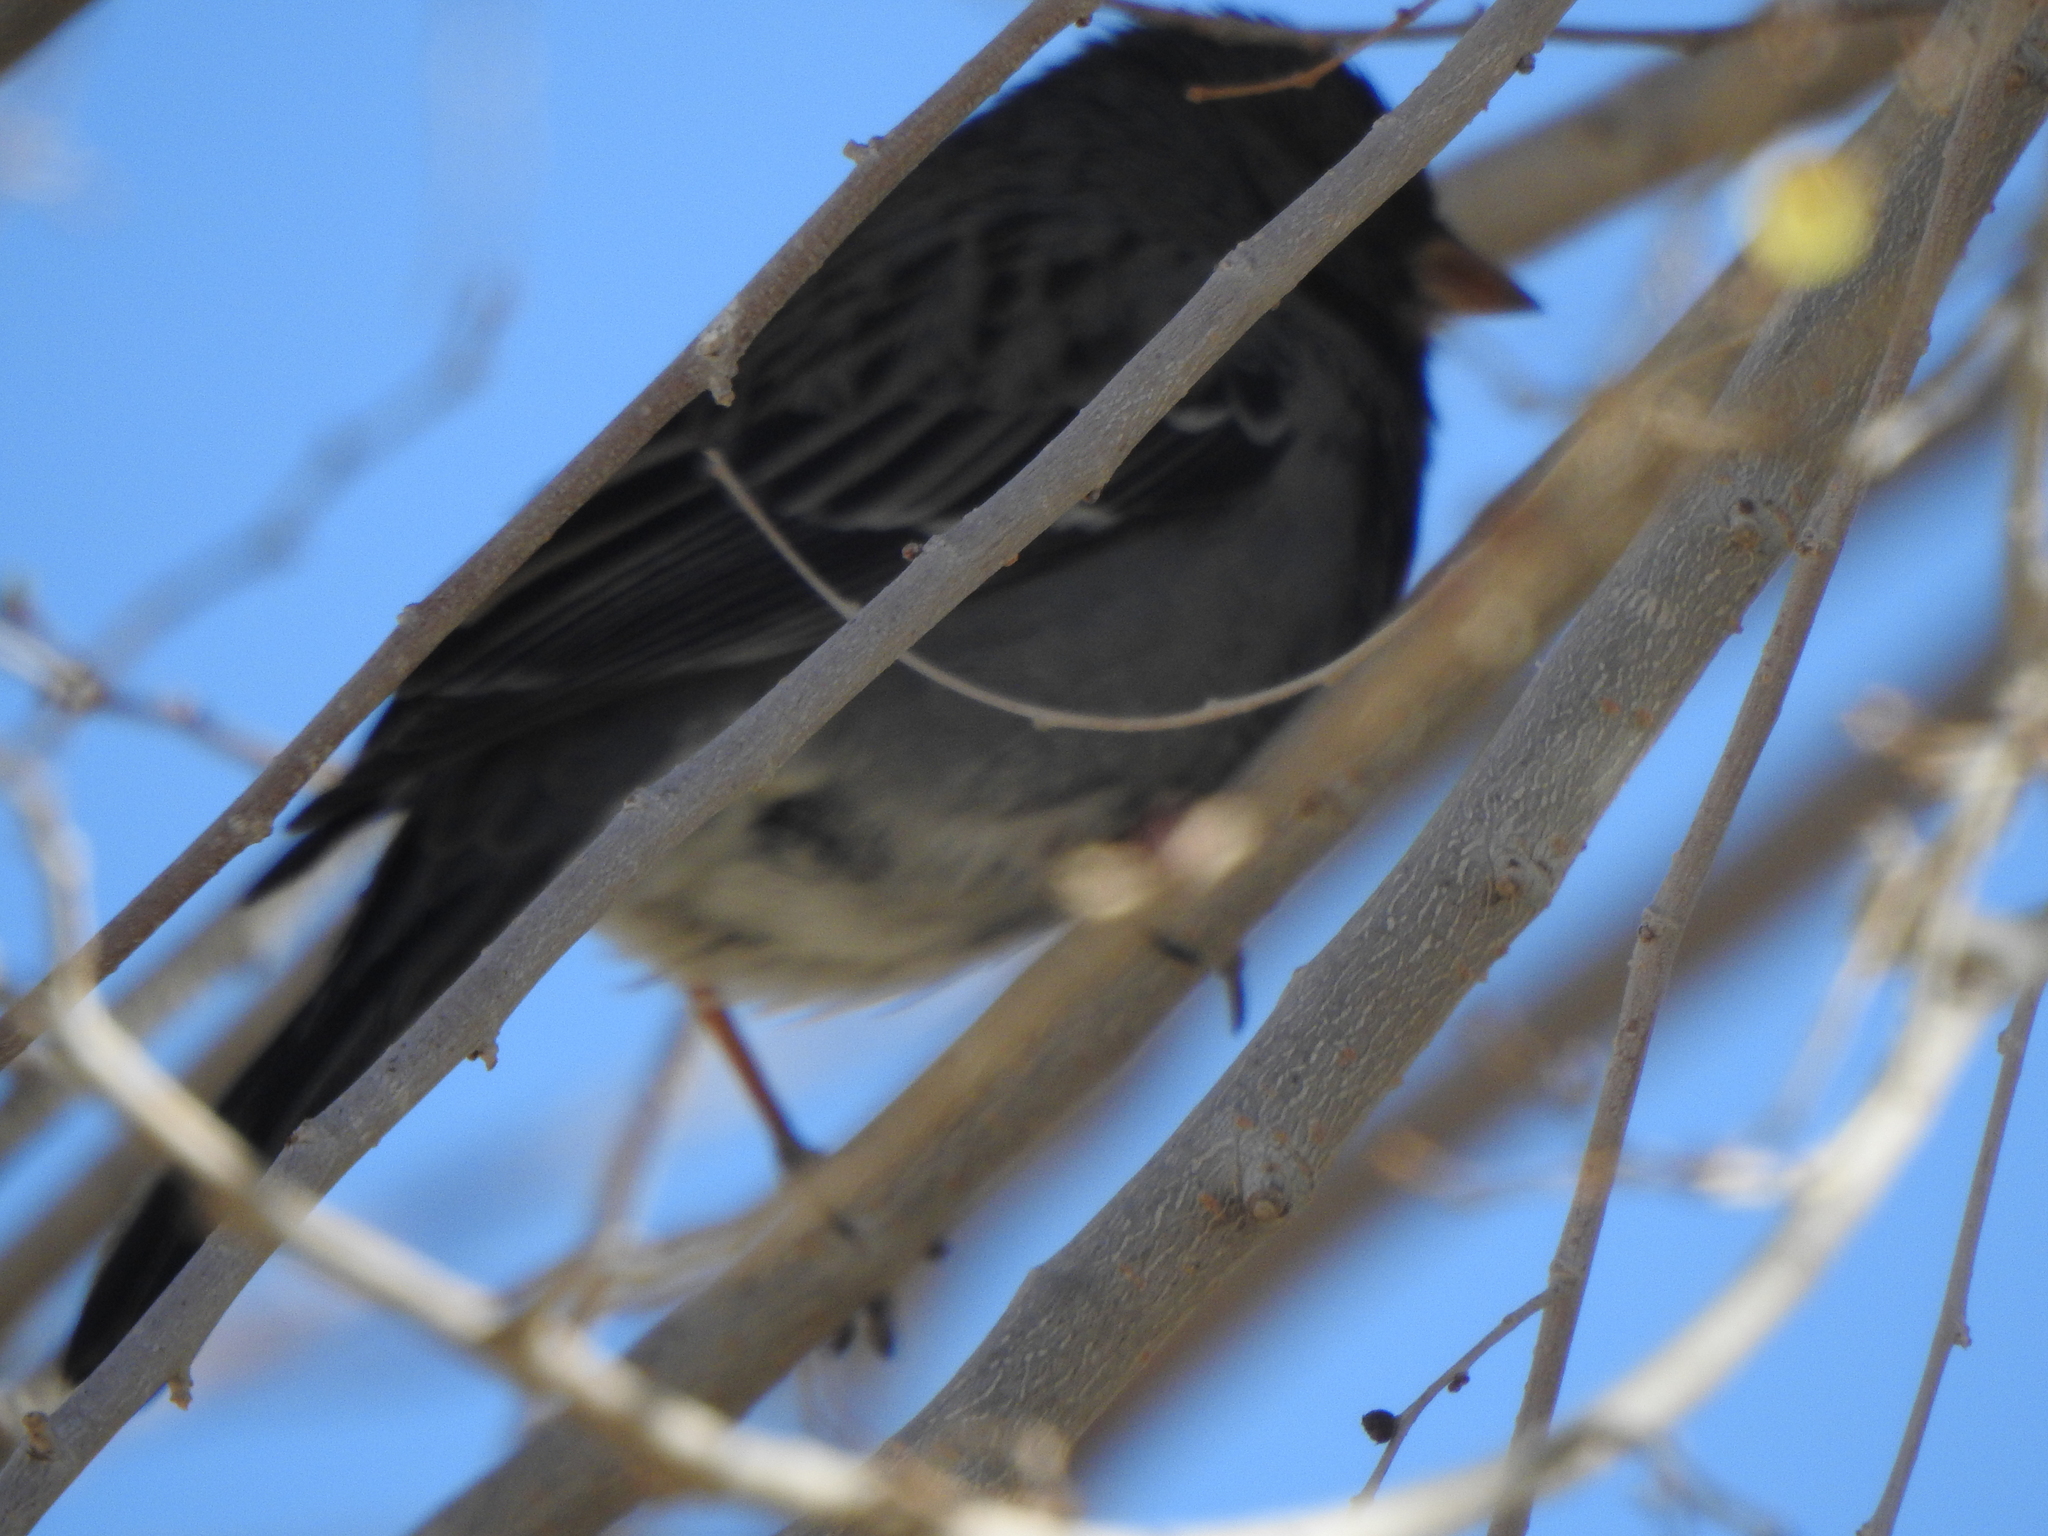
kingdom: Animalia
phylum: Chordata
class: Aves
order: Passeriformes
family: Thraupidae
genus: Rhopospina
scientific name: Rhopospina fruticeti
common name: Mourning sierra finch
